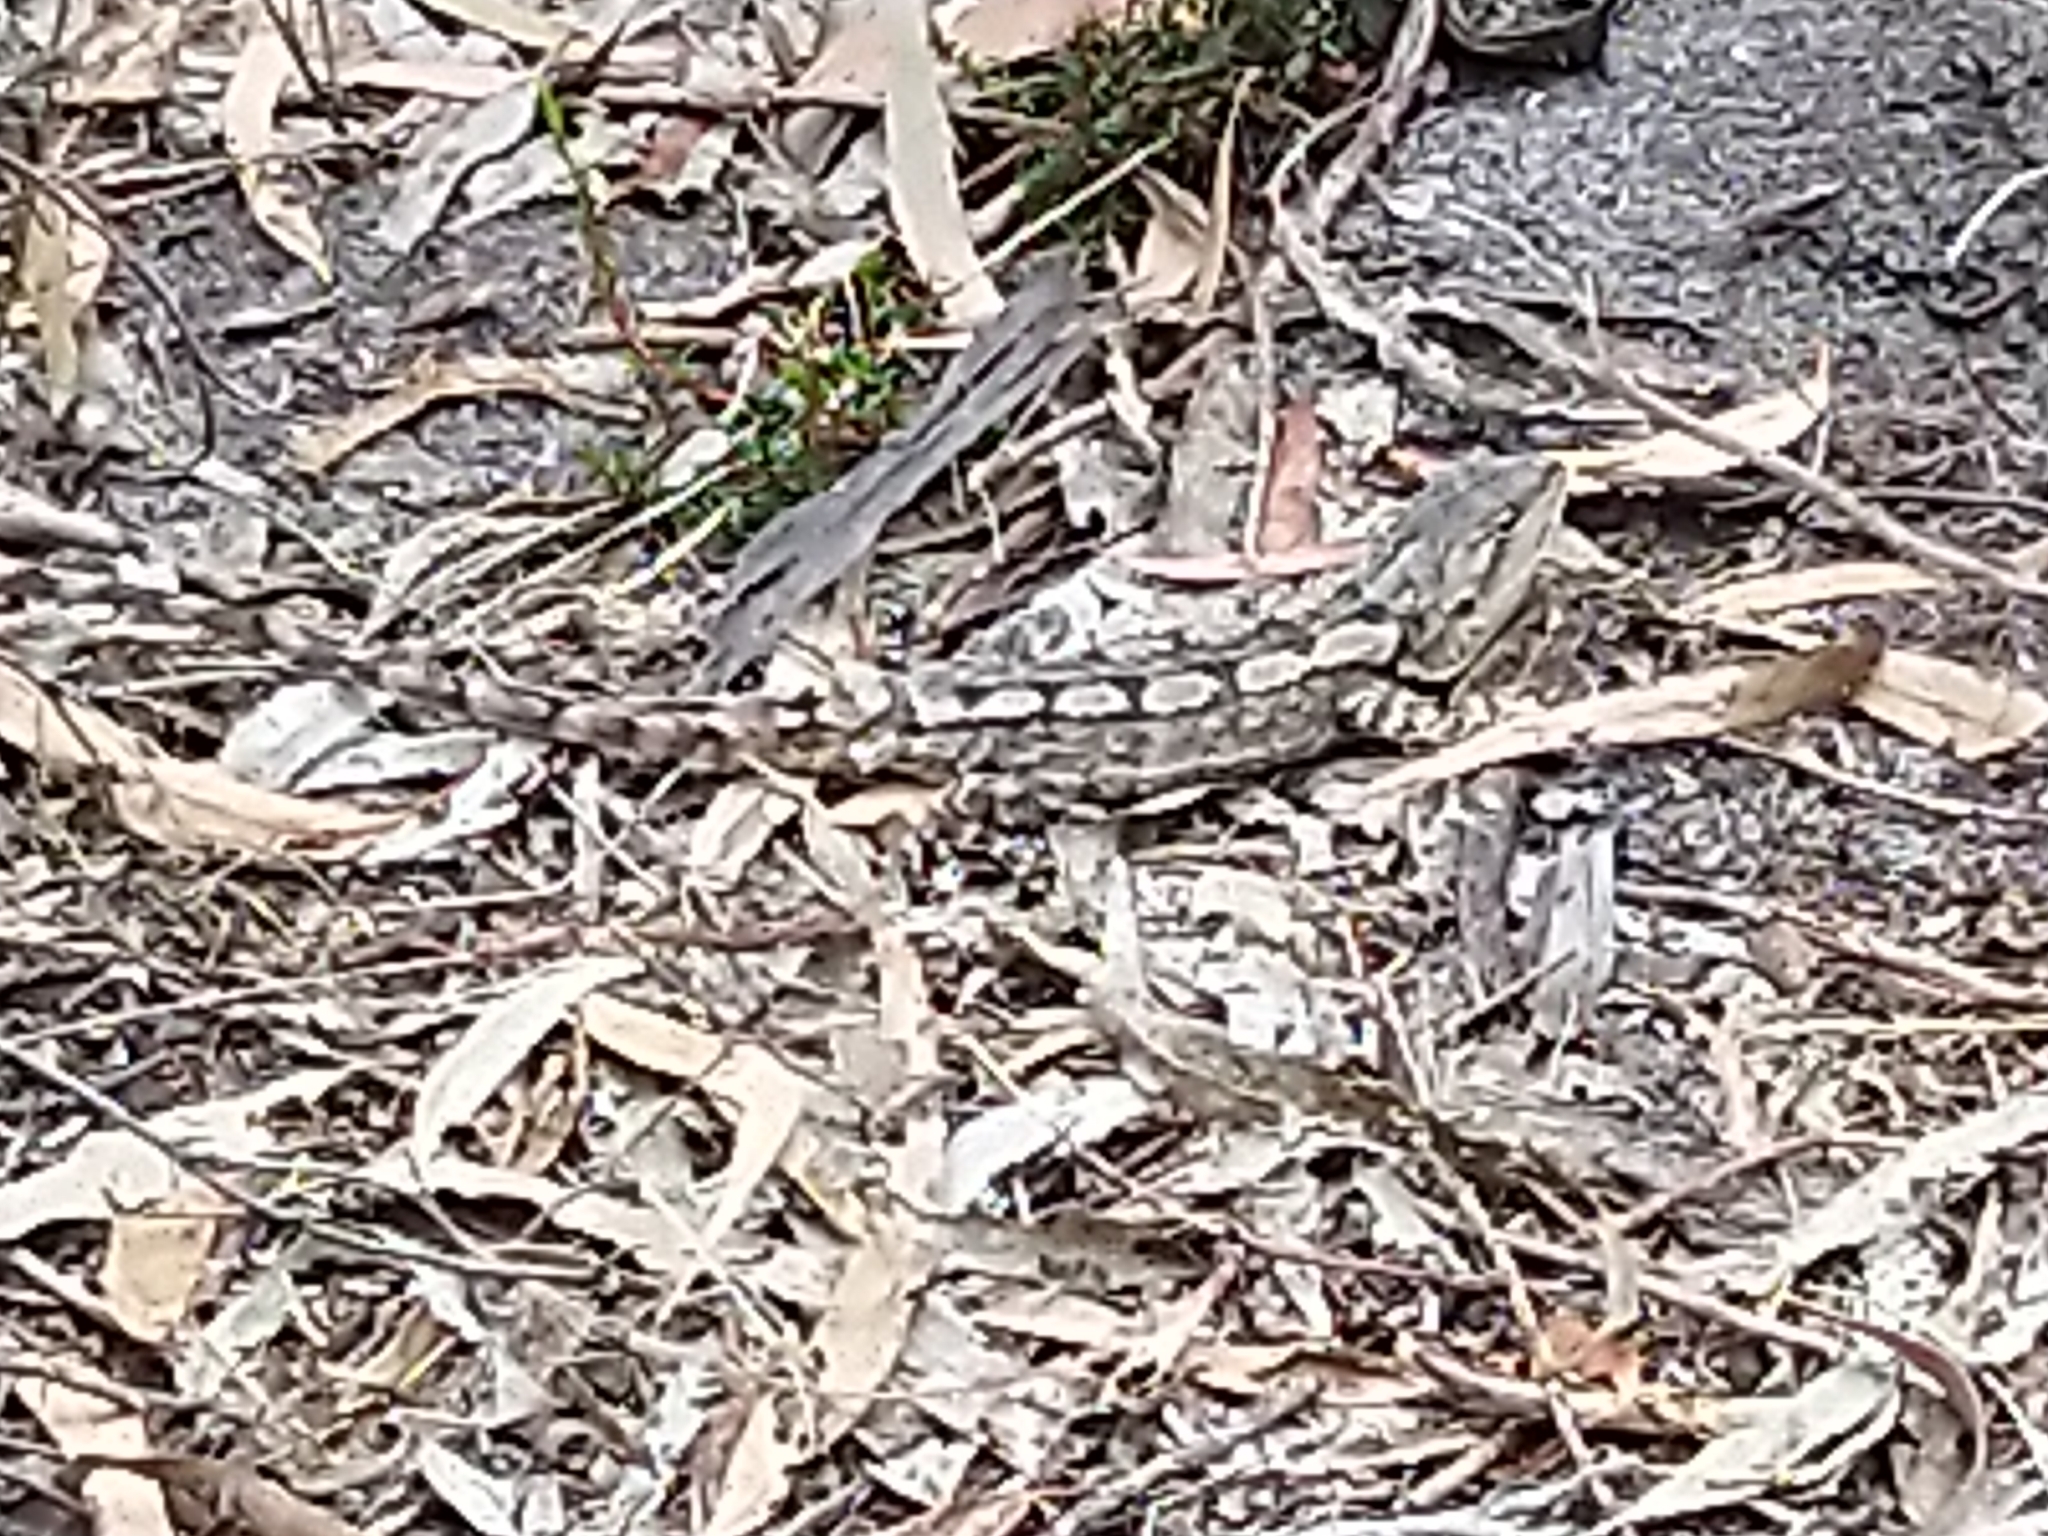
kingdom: Animalia
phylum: Chordata
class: Squamata
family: Agamidae
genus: Amphibolurus
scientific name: Amphibolurus muricatus
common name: Jacky lizard
